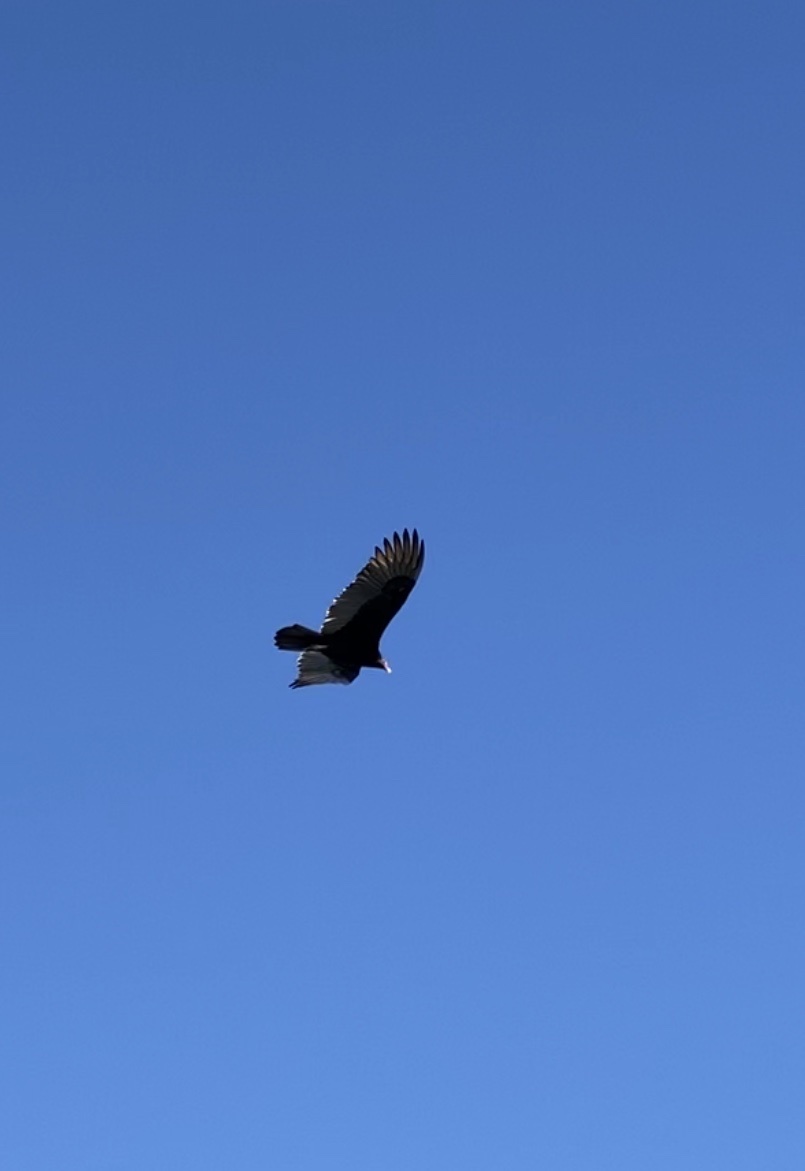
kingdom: Animalia
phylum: Chordata
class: Aves
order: Accipitriformes
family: Cathartidae
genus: Cathartes
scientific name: Cathartes aura
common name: Turkey vulture
